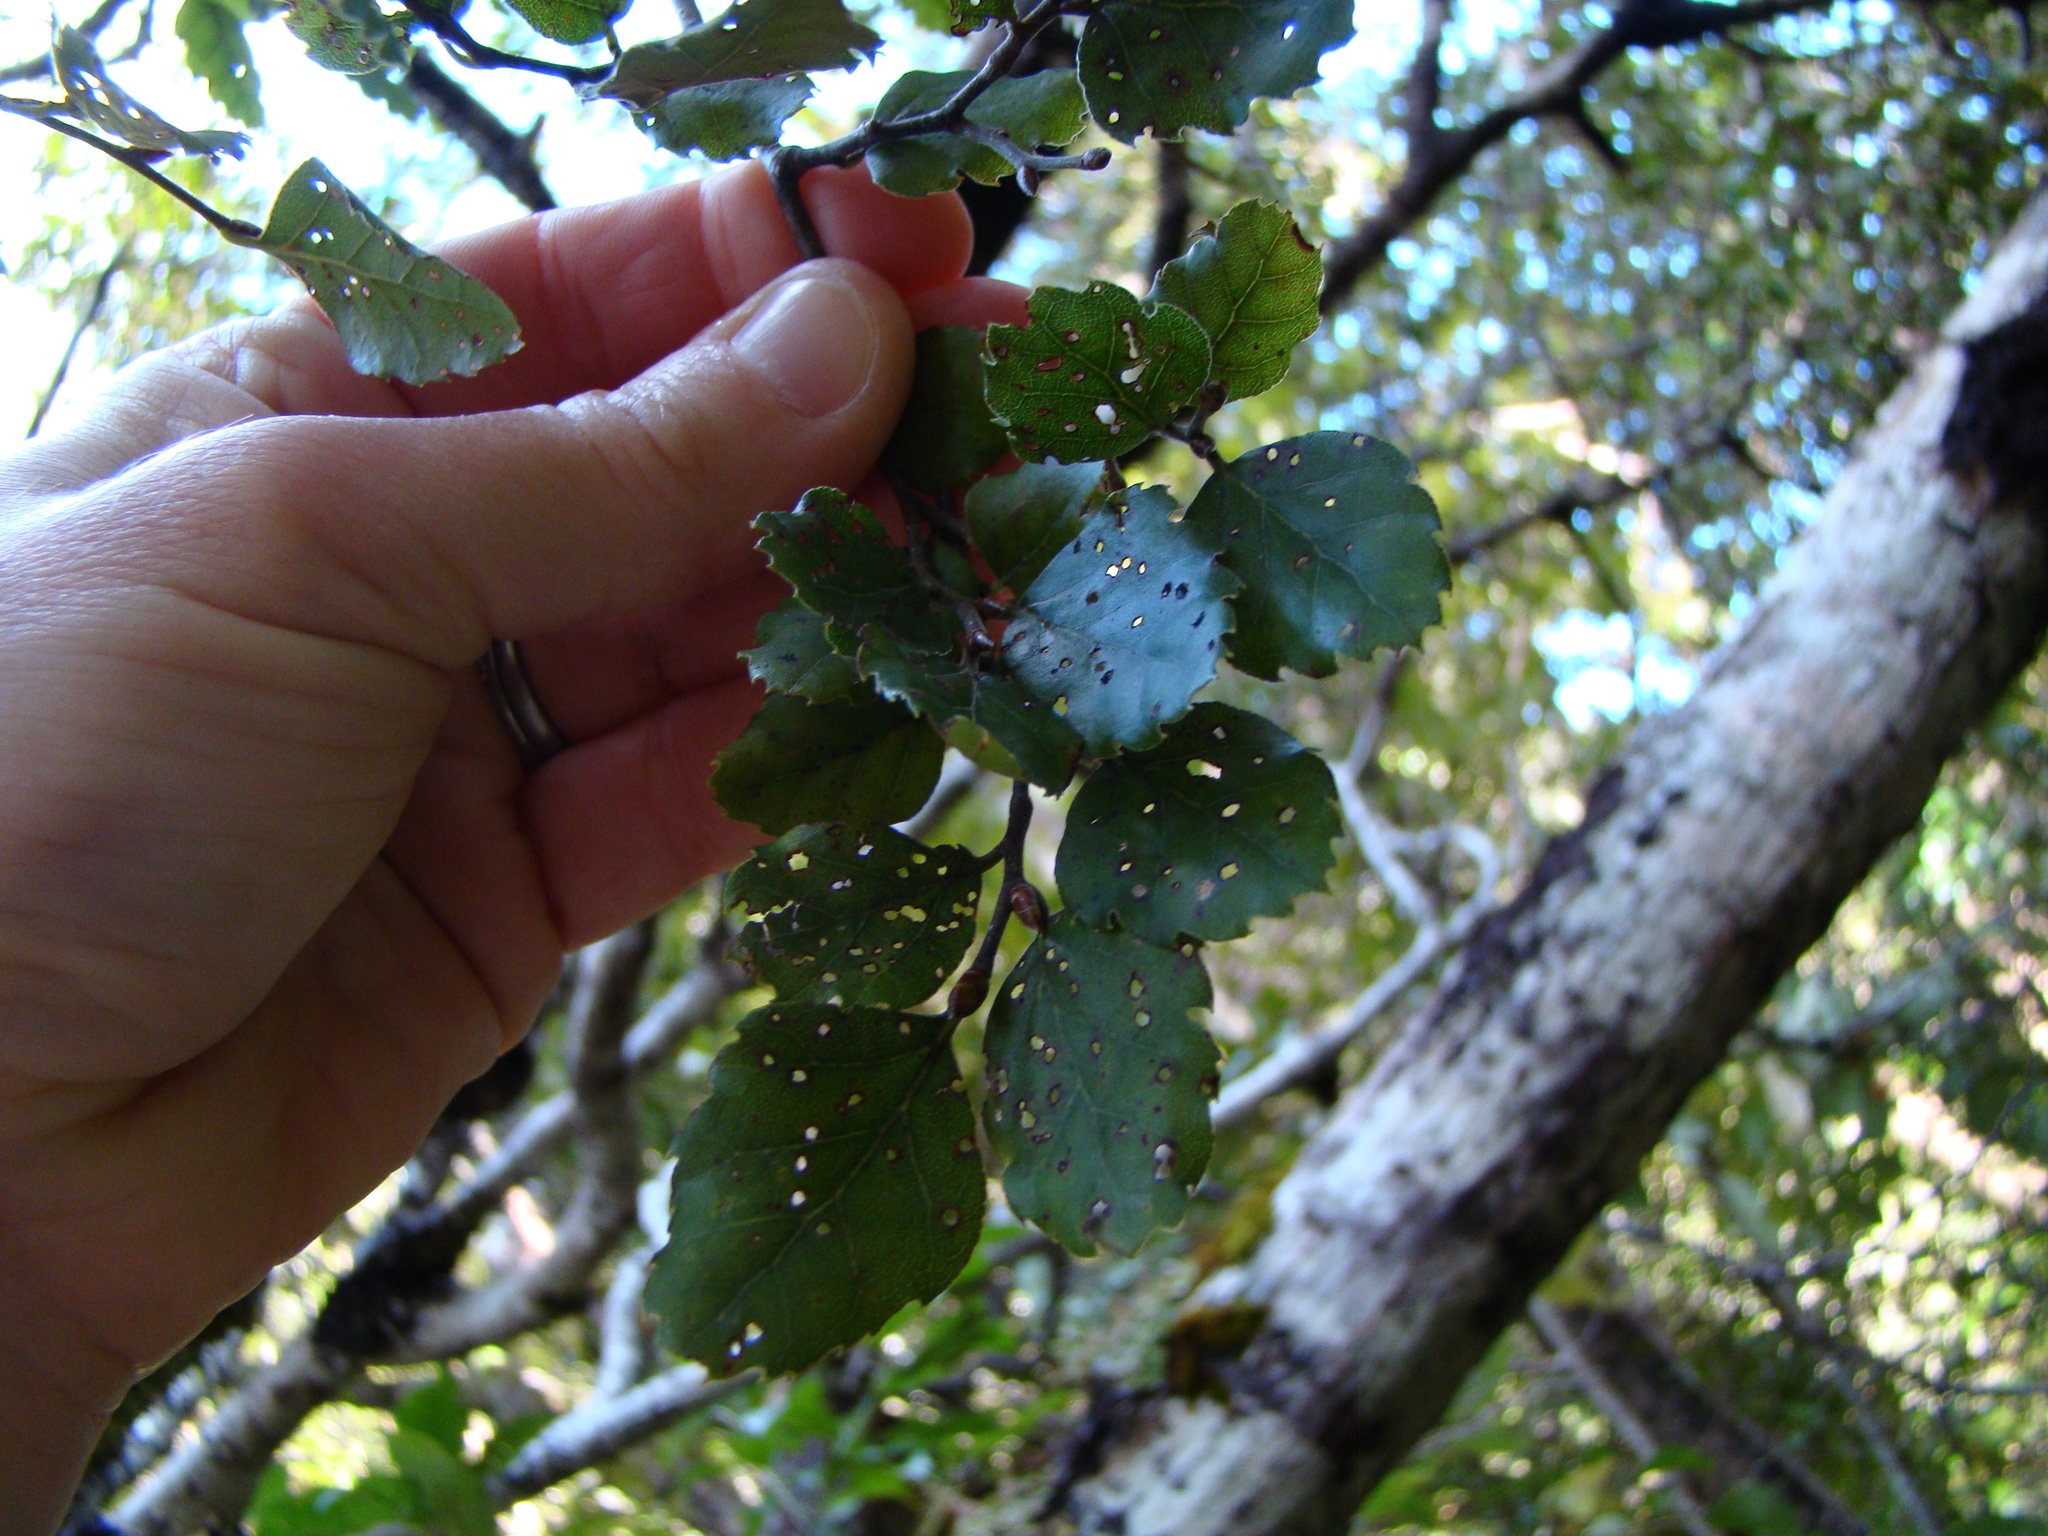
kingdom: Plantae
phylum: Tracheophyta
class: Magnoliopsida
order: Fagales
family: Nothofagaceae
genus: Nothofagus
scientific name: Nothofagus fusca
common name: Red beech
